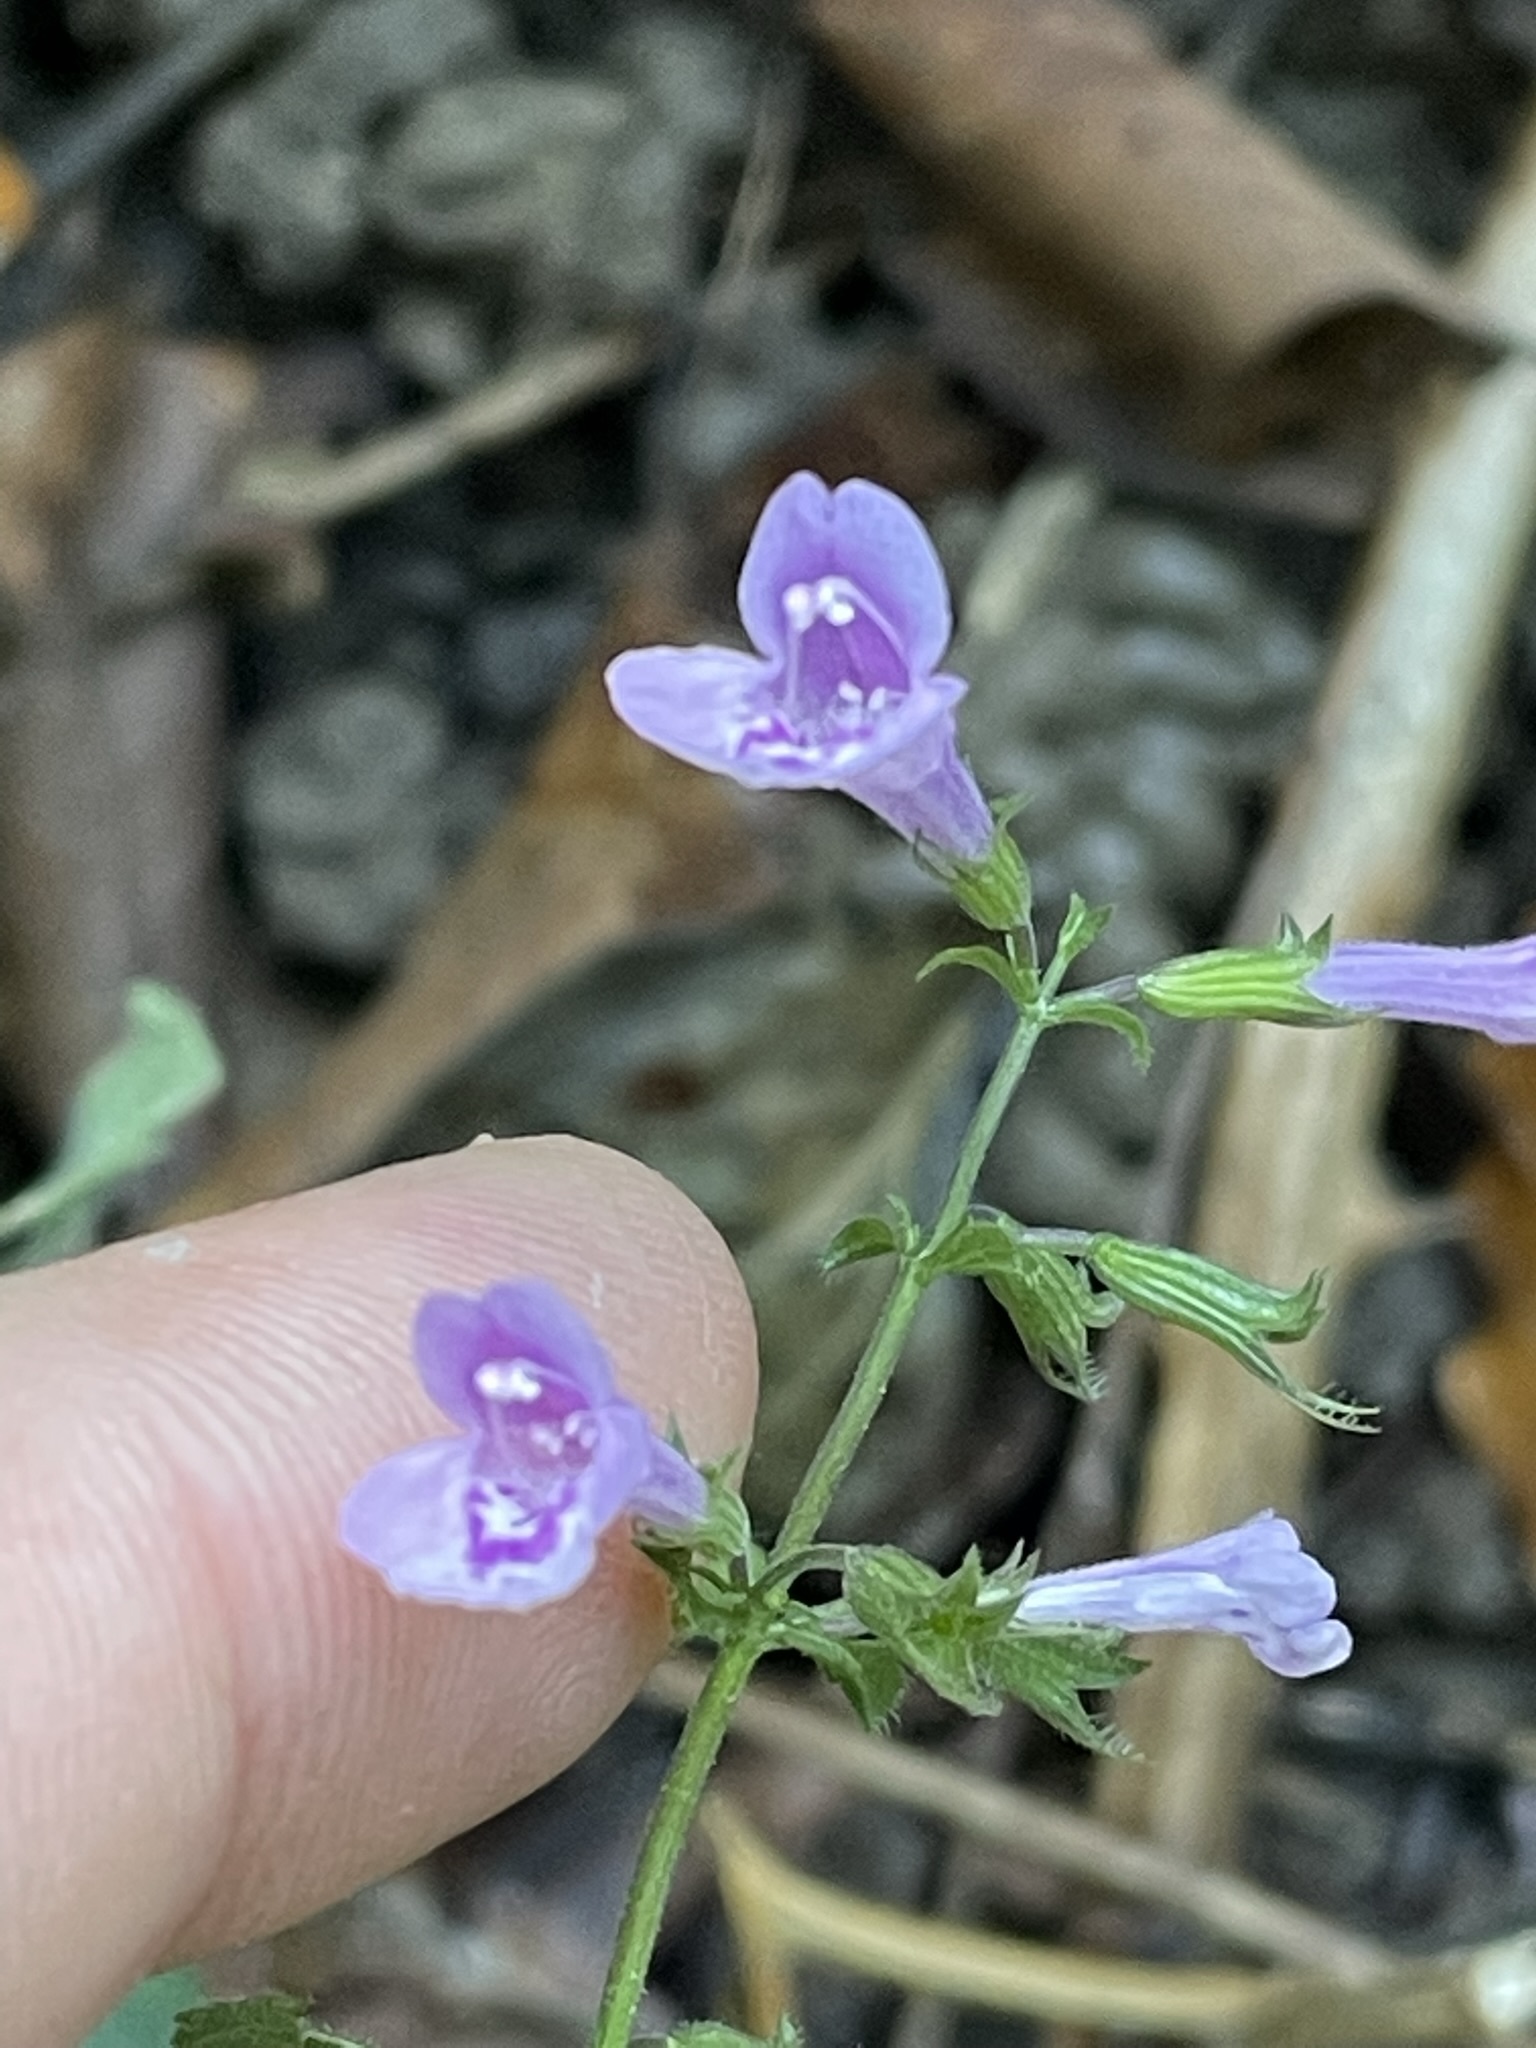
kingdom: Plantae
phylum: Tracheophyta
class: Magnoliopsida
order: Lamiales
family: Lamiaceae
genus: Clinopodium
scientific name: Clinopodium menthifolium
